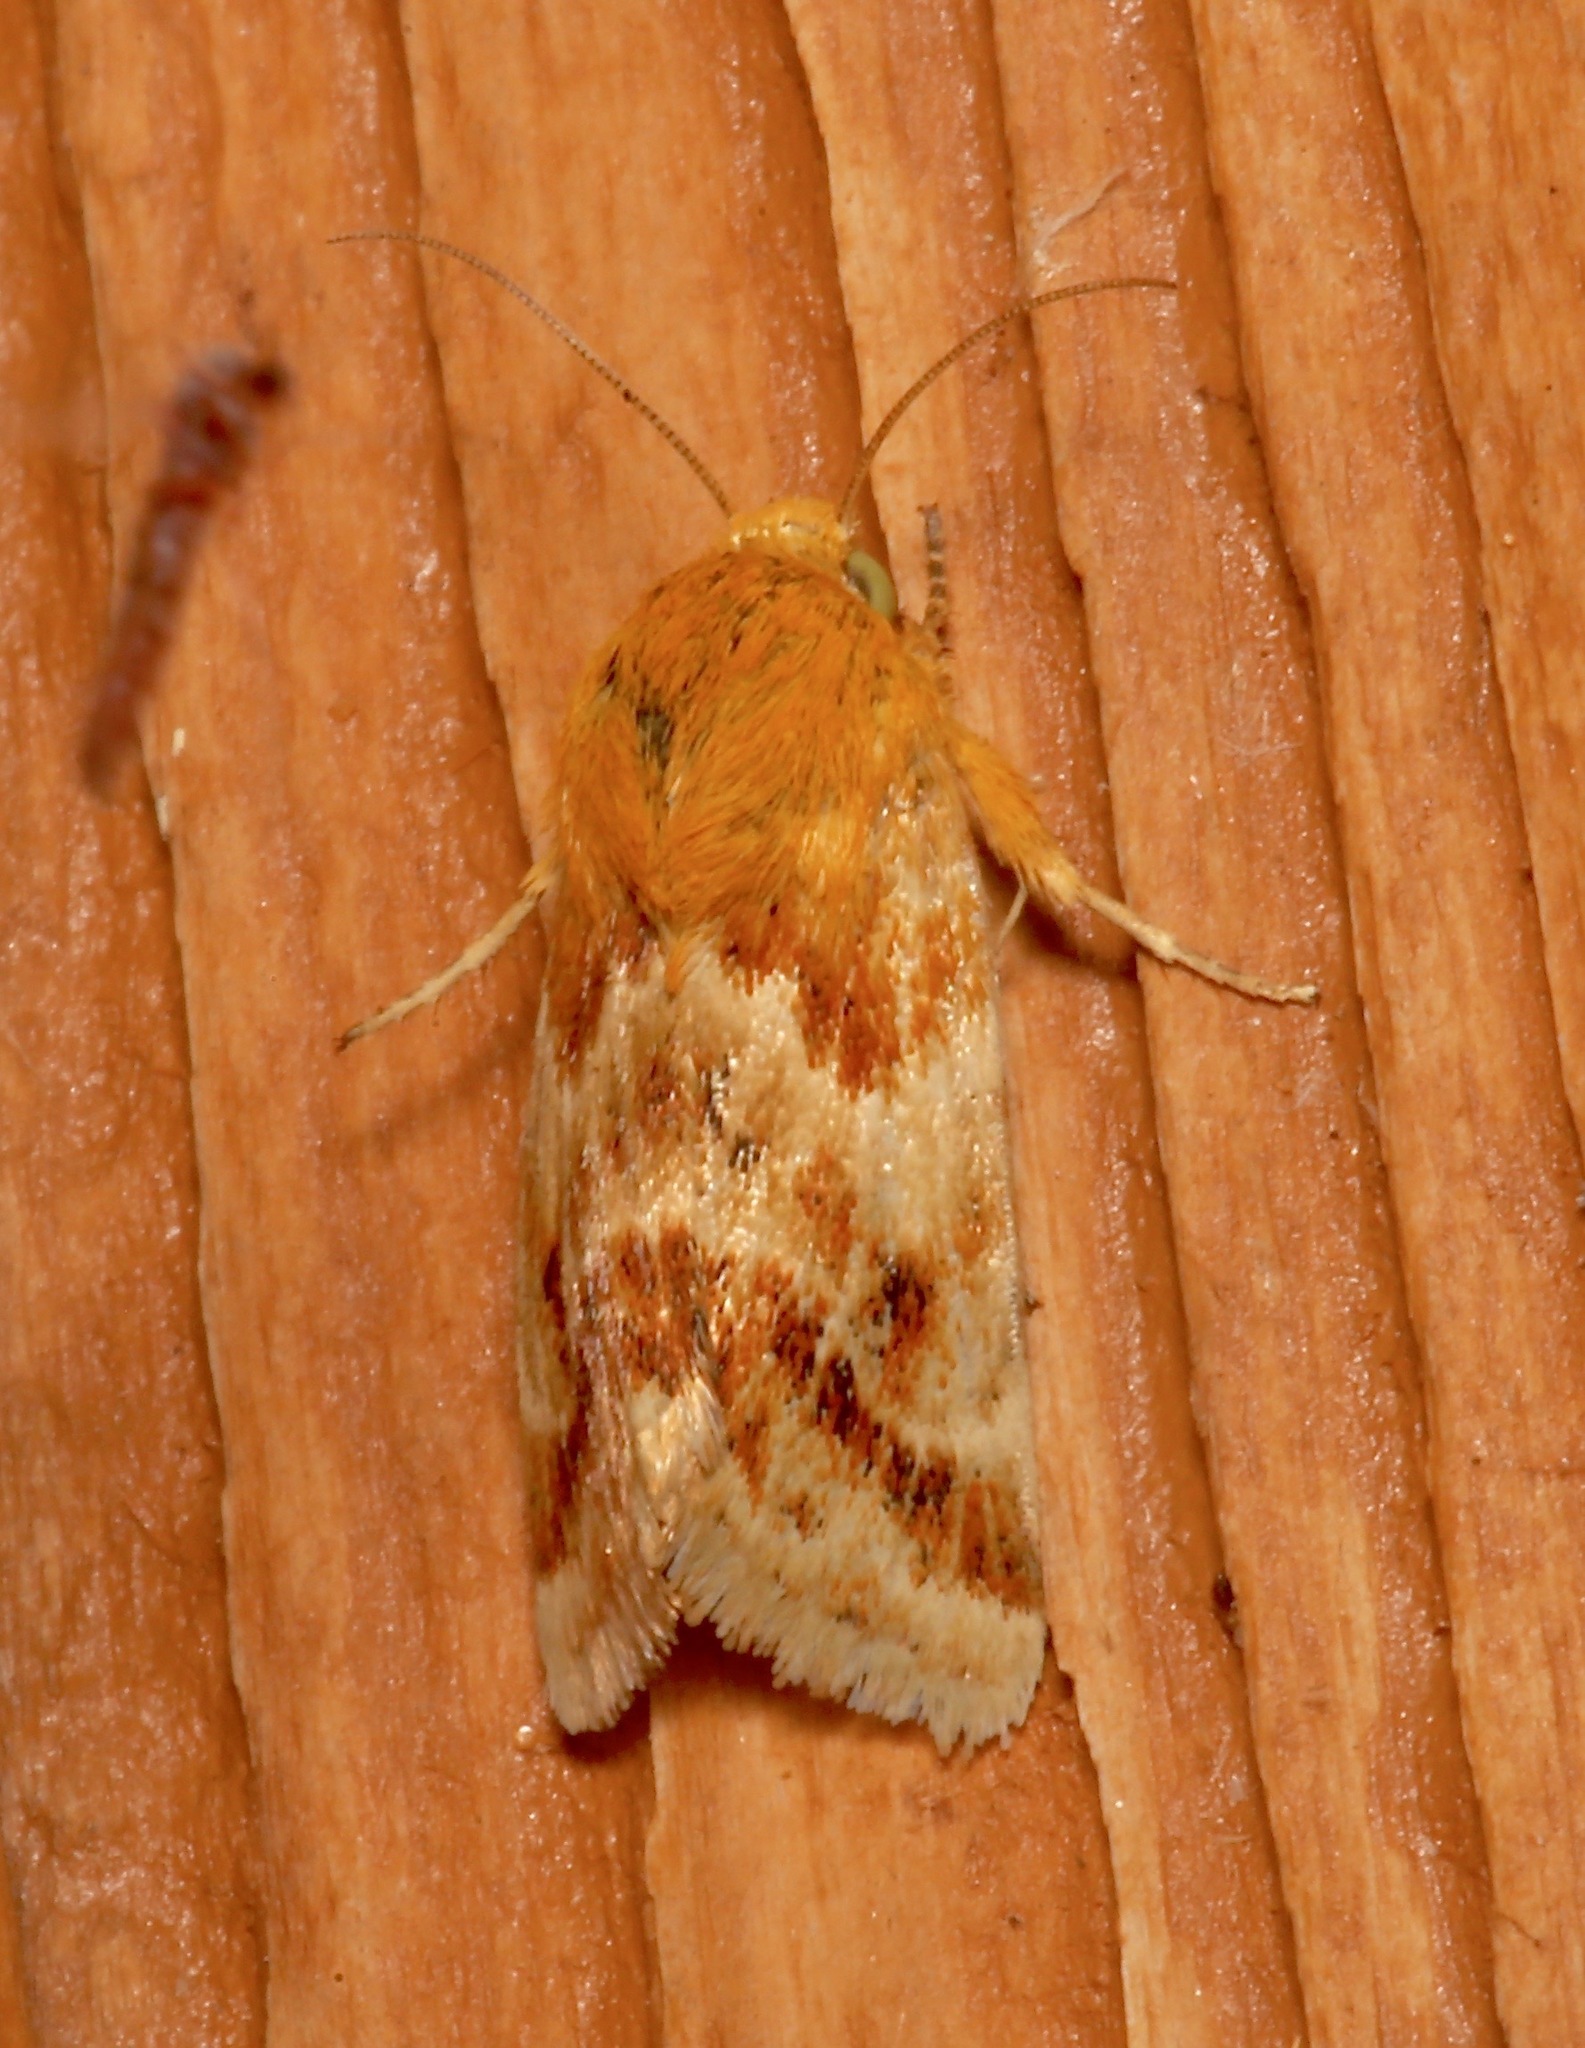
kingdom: Animalia
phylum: Arthropoda
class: Insecta
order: Lepidoptera
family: Noctuidae
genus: Schinia
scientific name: Schinia siren
